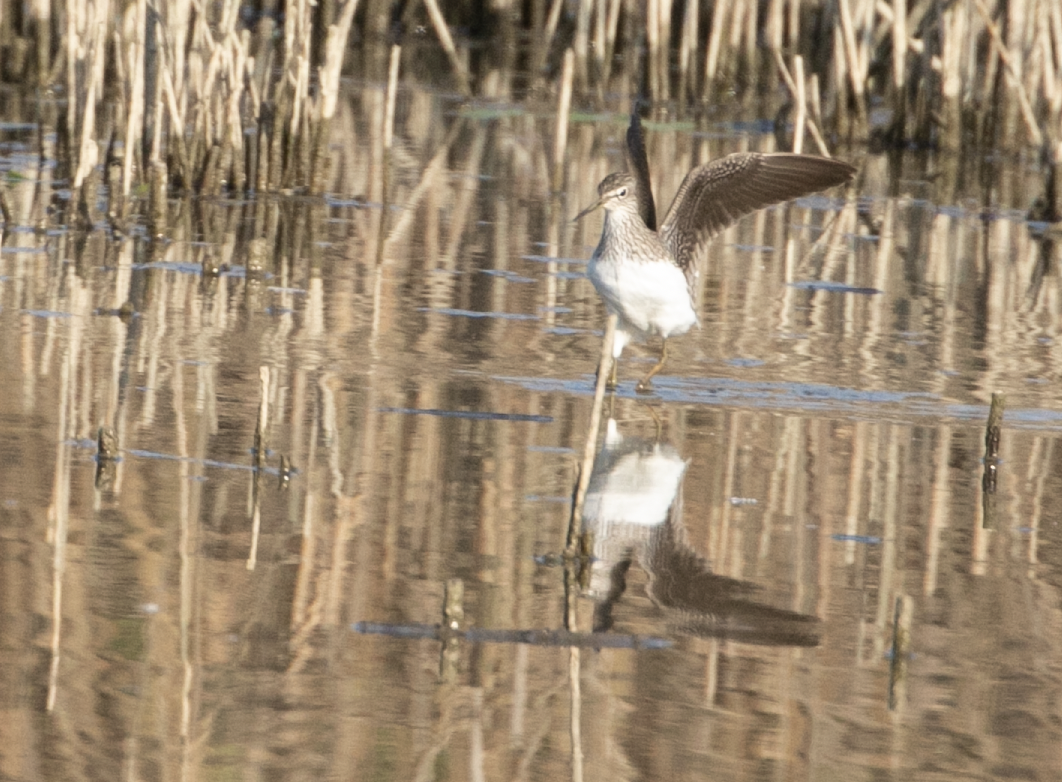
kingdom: Animalia
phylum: Chordata
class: Aves
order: Charadriiformes
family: Scolopacidae
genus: Tringa
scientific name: Tringa ochropus
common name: Green sandpiper
